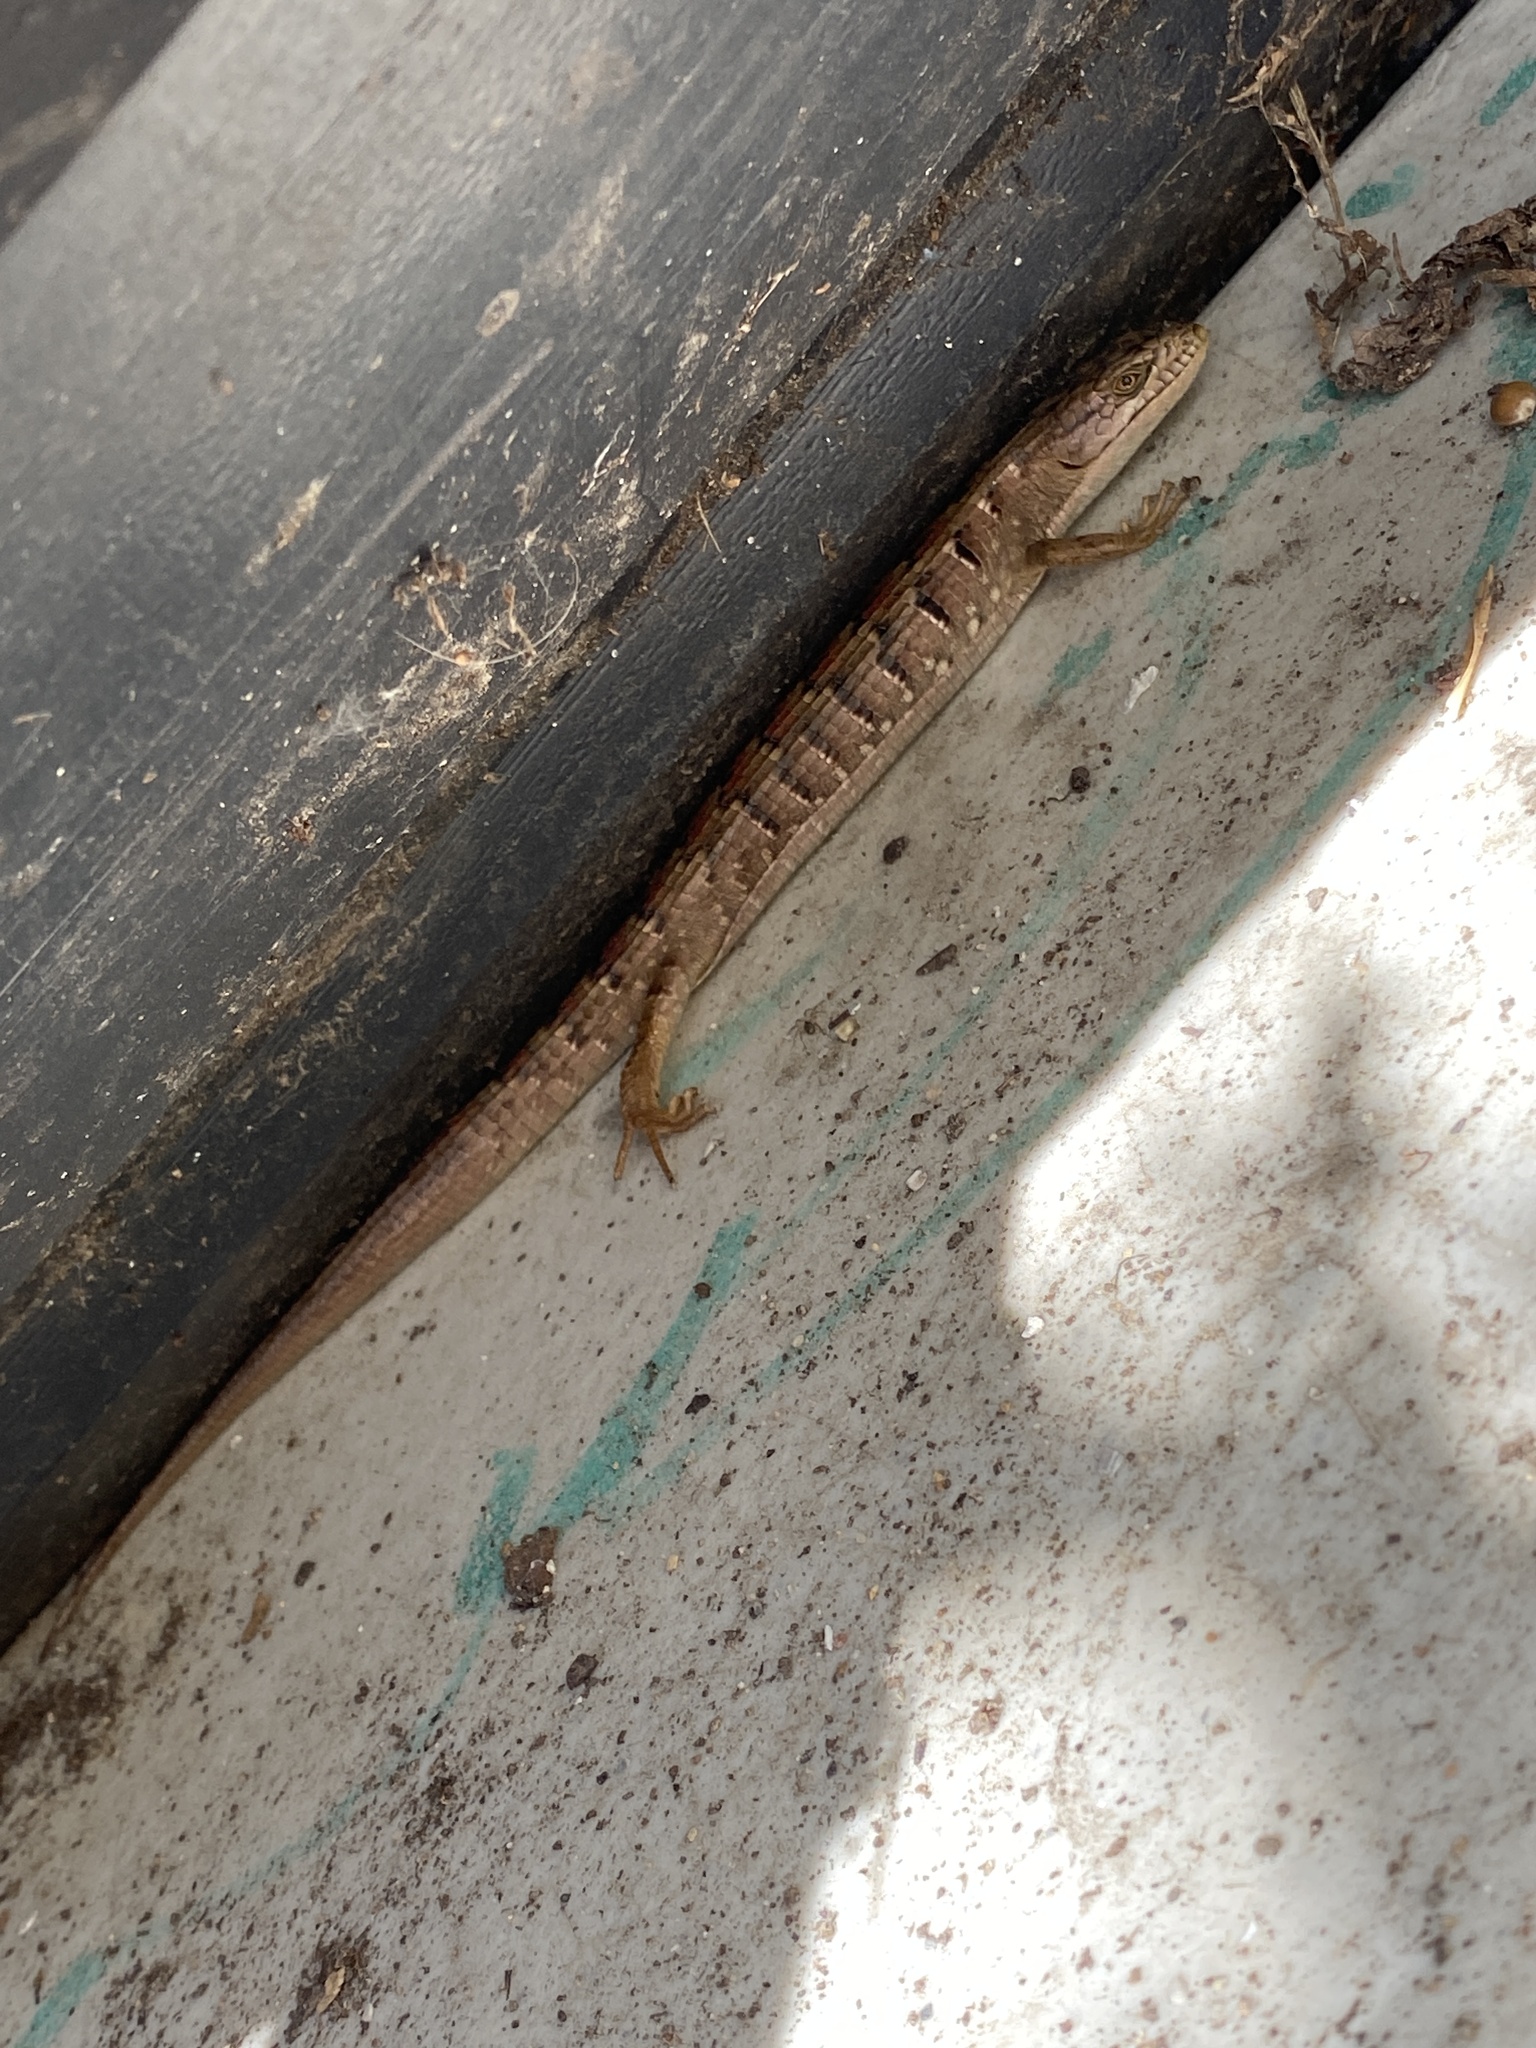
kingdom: Animalia
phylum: Chordata
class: Squamata
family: Anguidae
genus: Elgaria
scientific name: Elgaria multicarinata
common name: Southern alligator lizard
